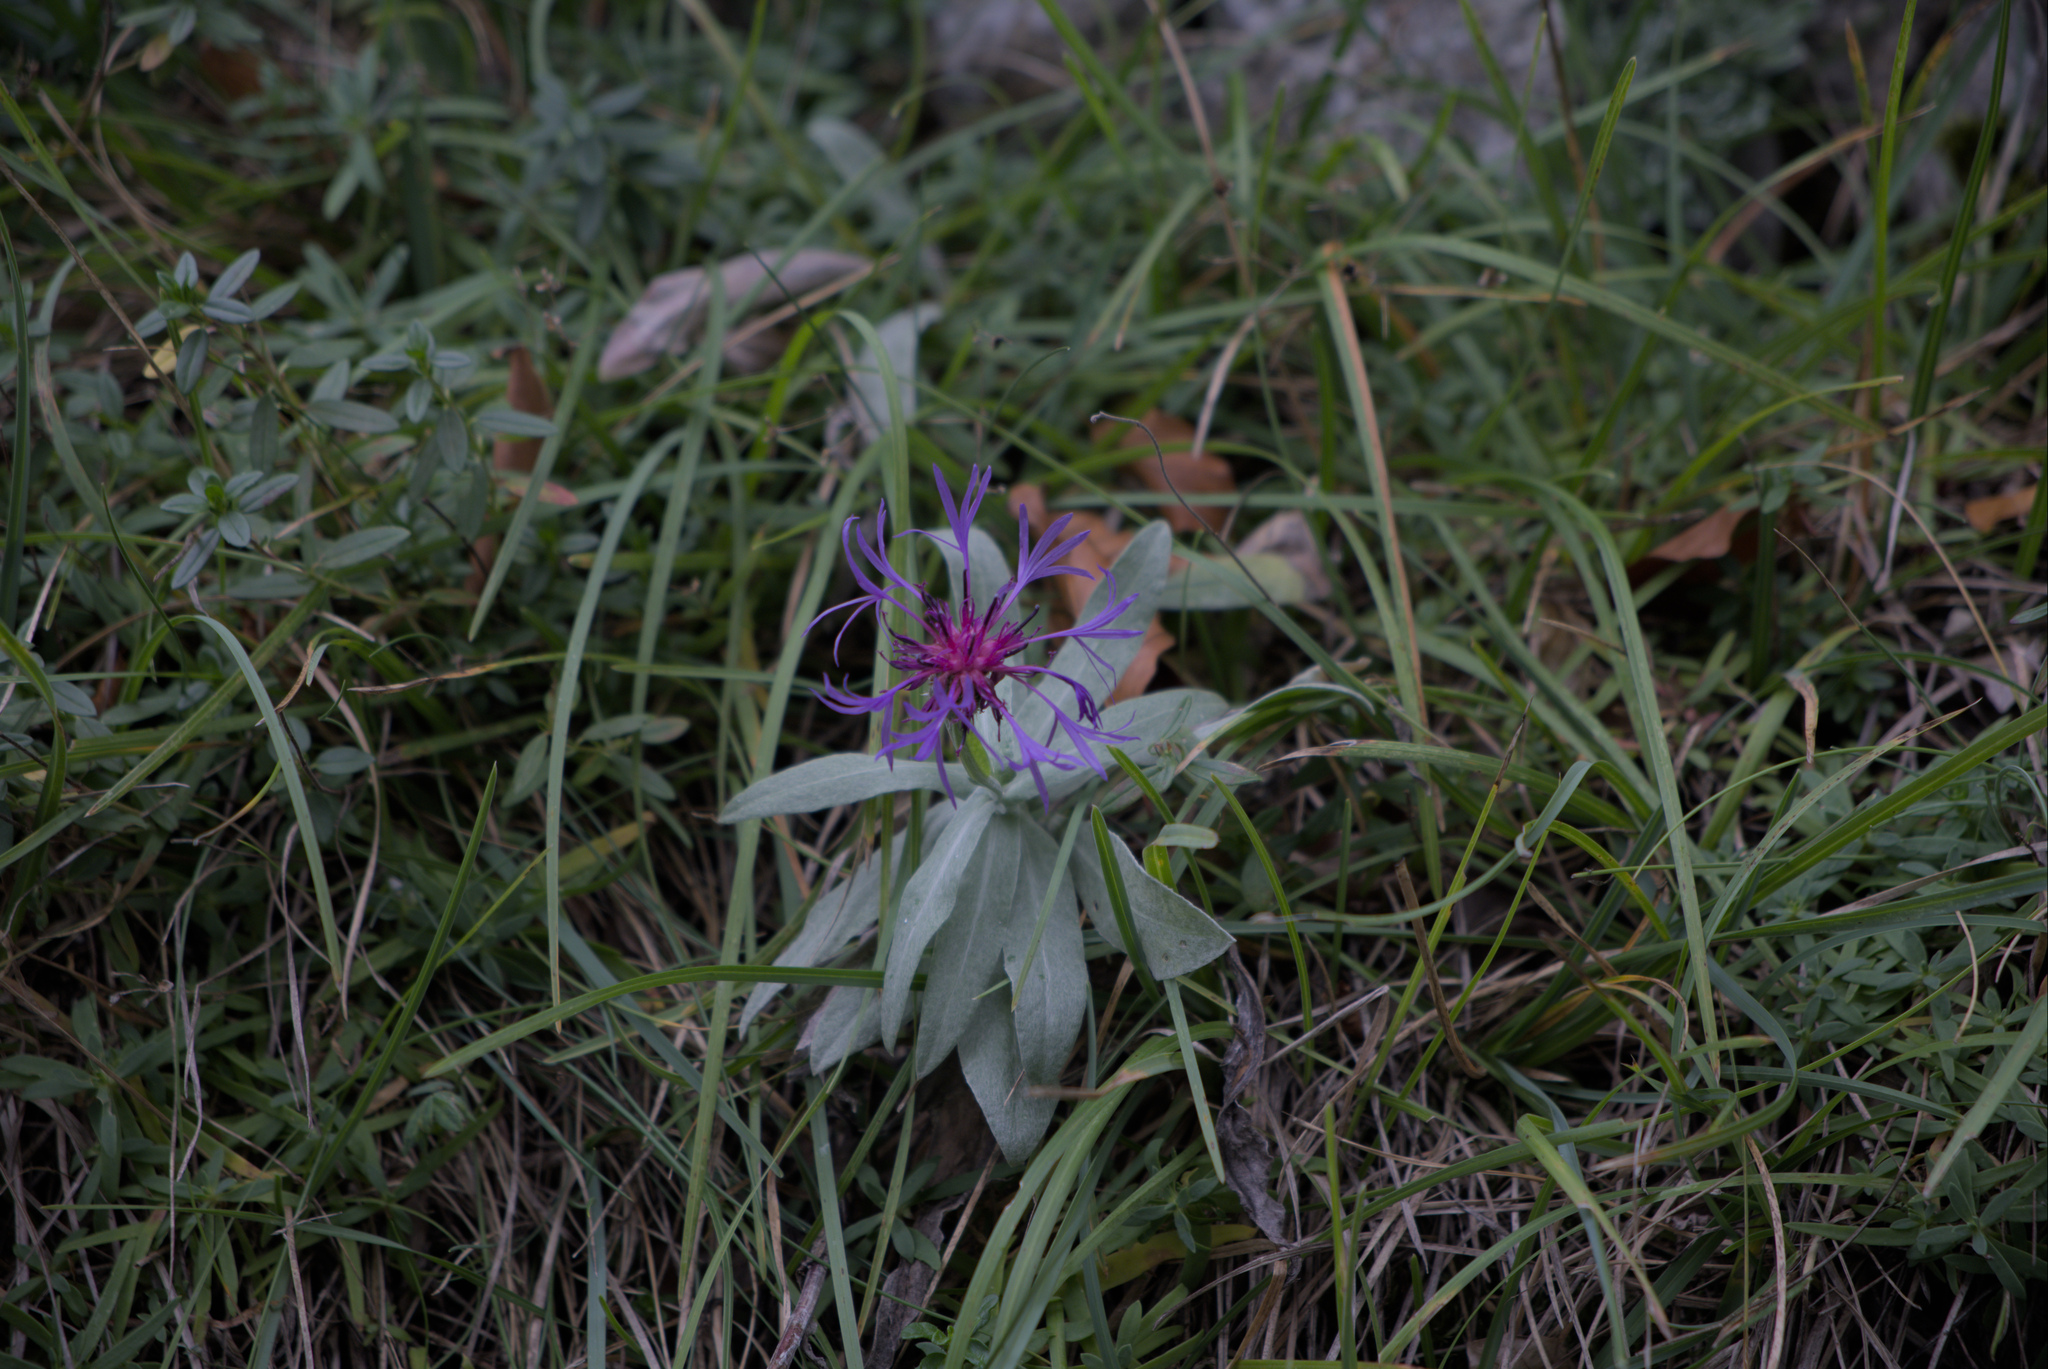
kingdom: Plantae
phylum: Tracheophyta
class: Magnoliopsida
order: Asterales
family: Asteraceae
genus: Centaurea
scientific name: Centaurea triumfettii
